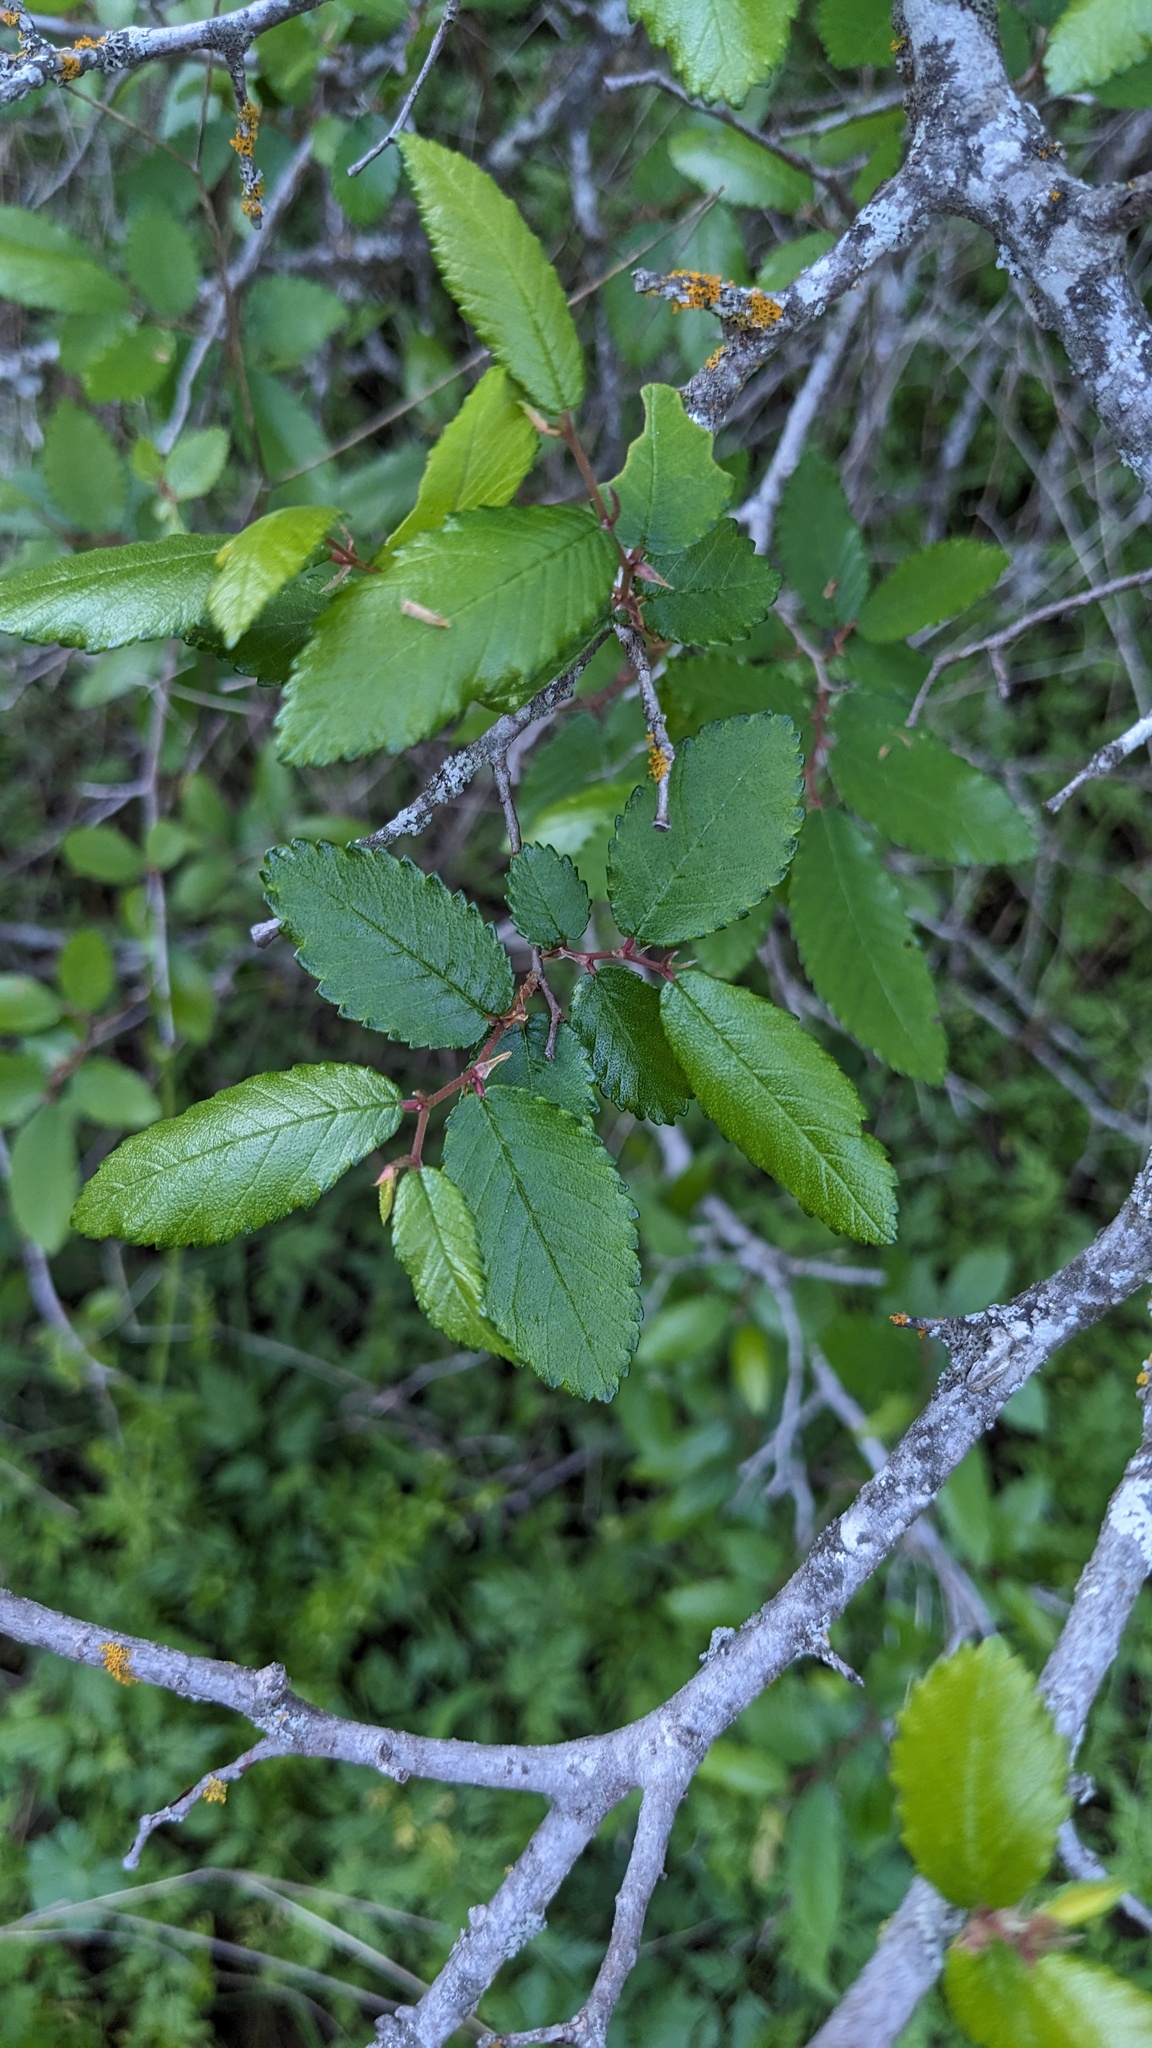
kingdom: Plantae
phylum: Tracheophyta
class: Magnoliopsida
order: Rosales
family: Ulmaceae
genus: Ulmus
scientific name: Ulmus crassifolia
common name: Basket elm
